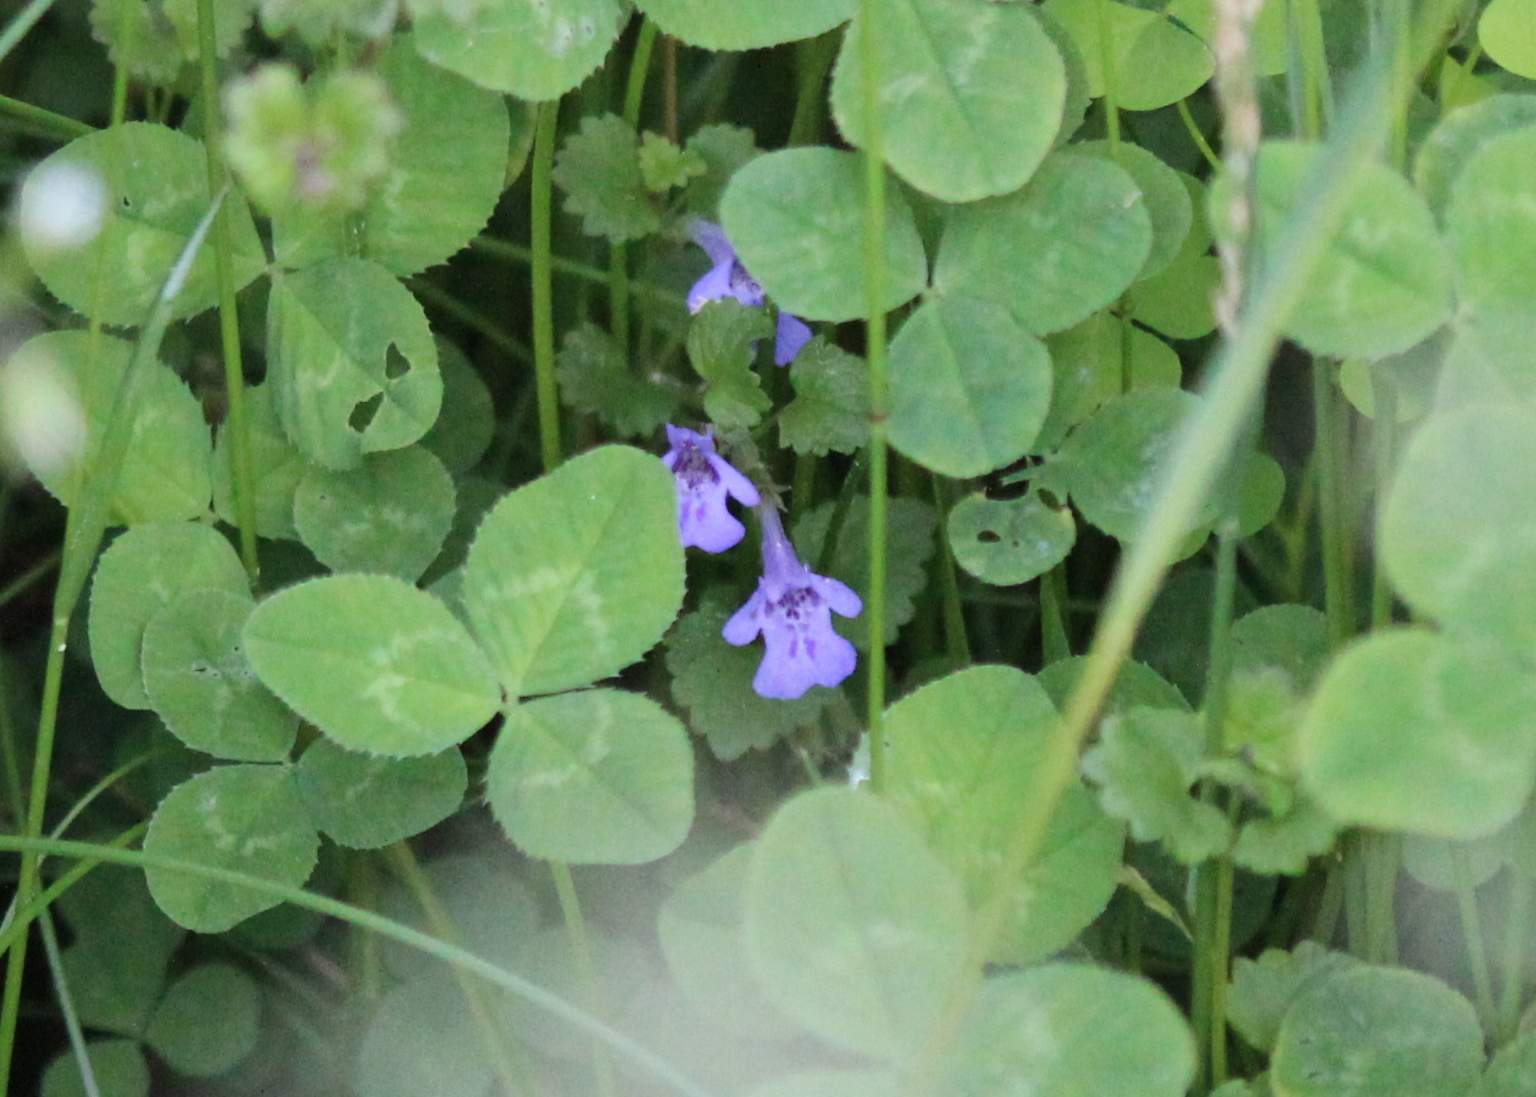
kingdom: Plantae
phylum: Tracheophyta
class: Magnoliopsida
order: Lamiales
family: Lamiaceae
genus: Glechoma
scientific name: Glechoma hederacea
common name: Ground ivy
